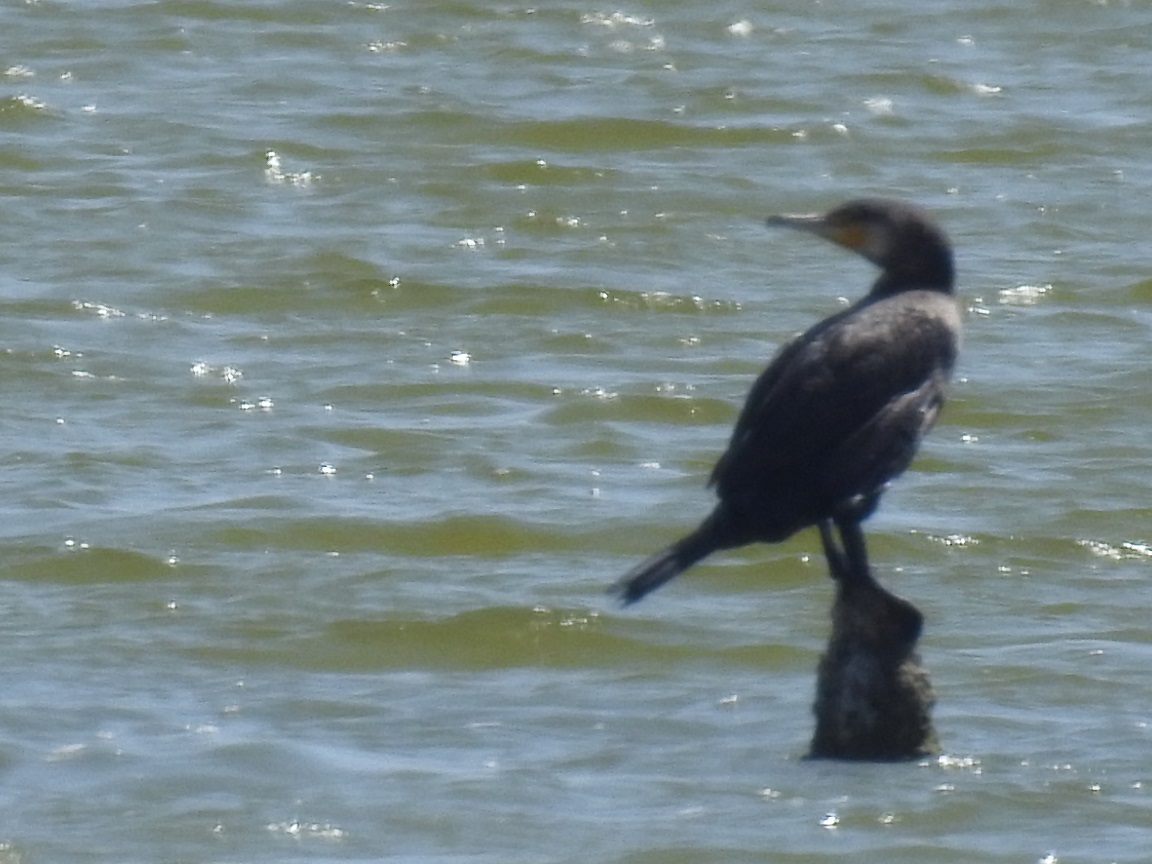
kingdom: Animalia
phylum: Chordata
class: Aves
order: Suliformes
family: Phalacrocoracidae
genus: Phalacrocorax
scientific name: Phalacrocorax carbo
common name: Great cormorant
